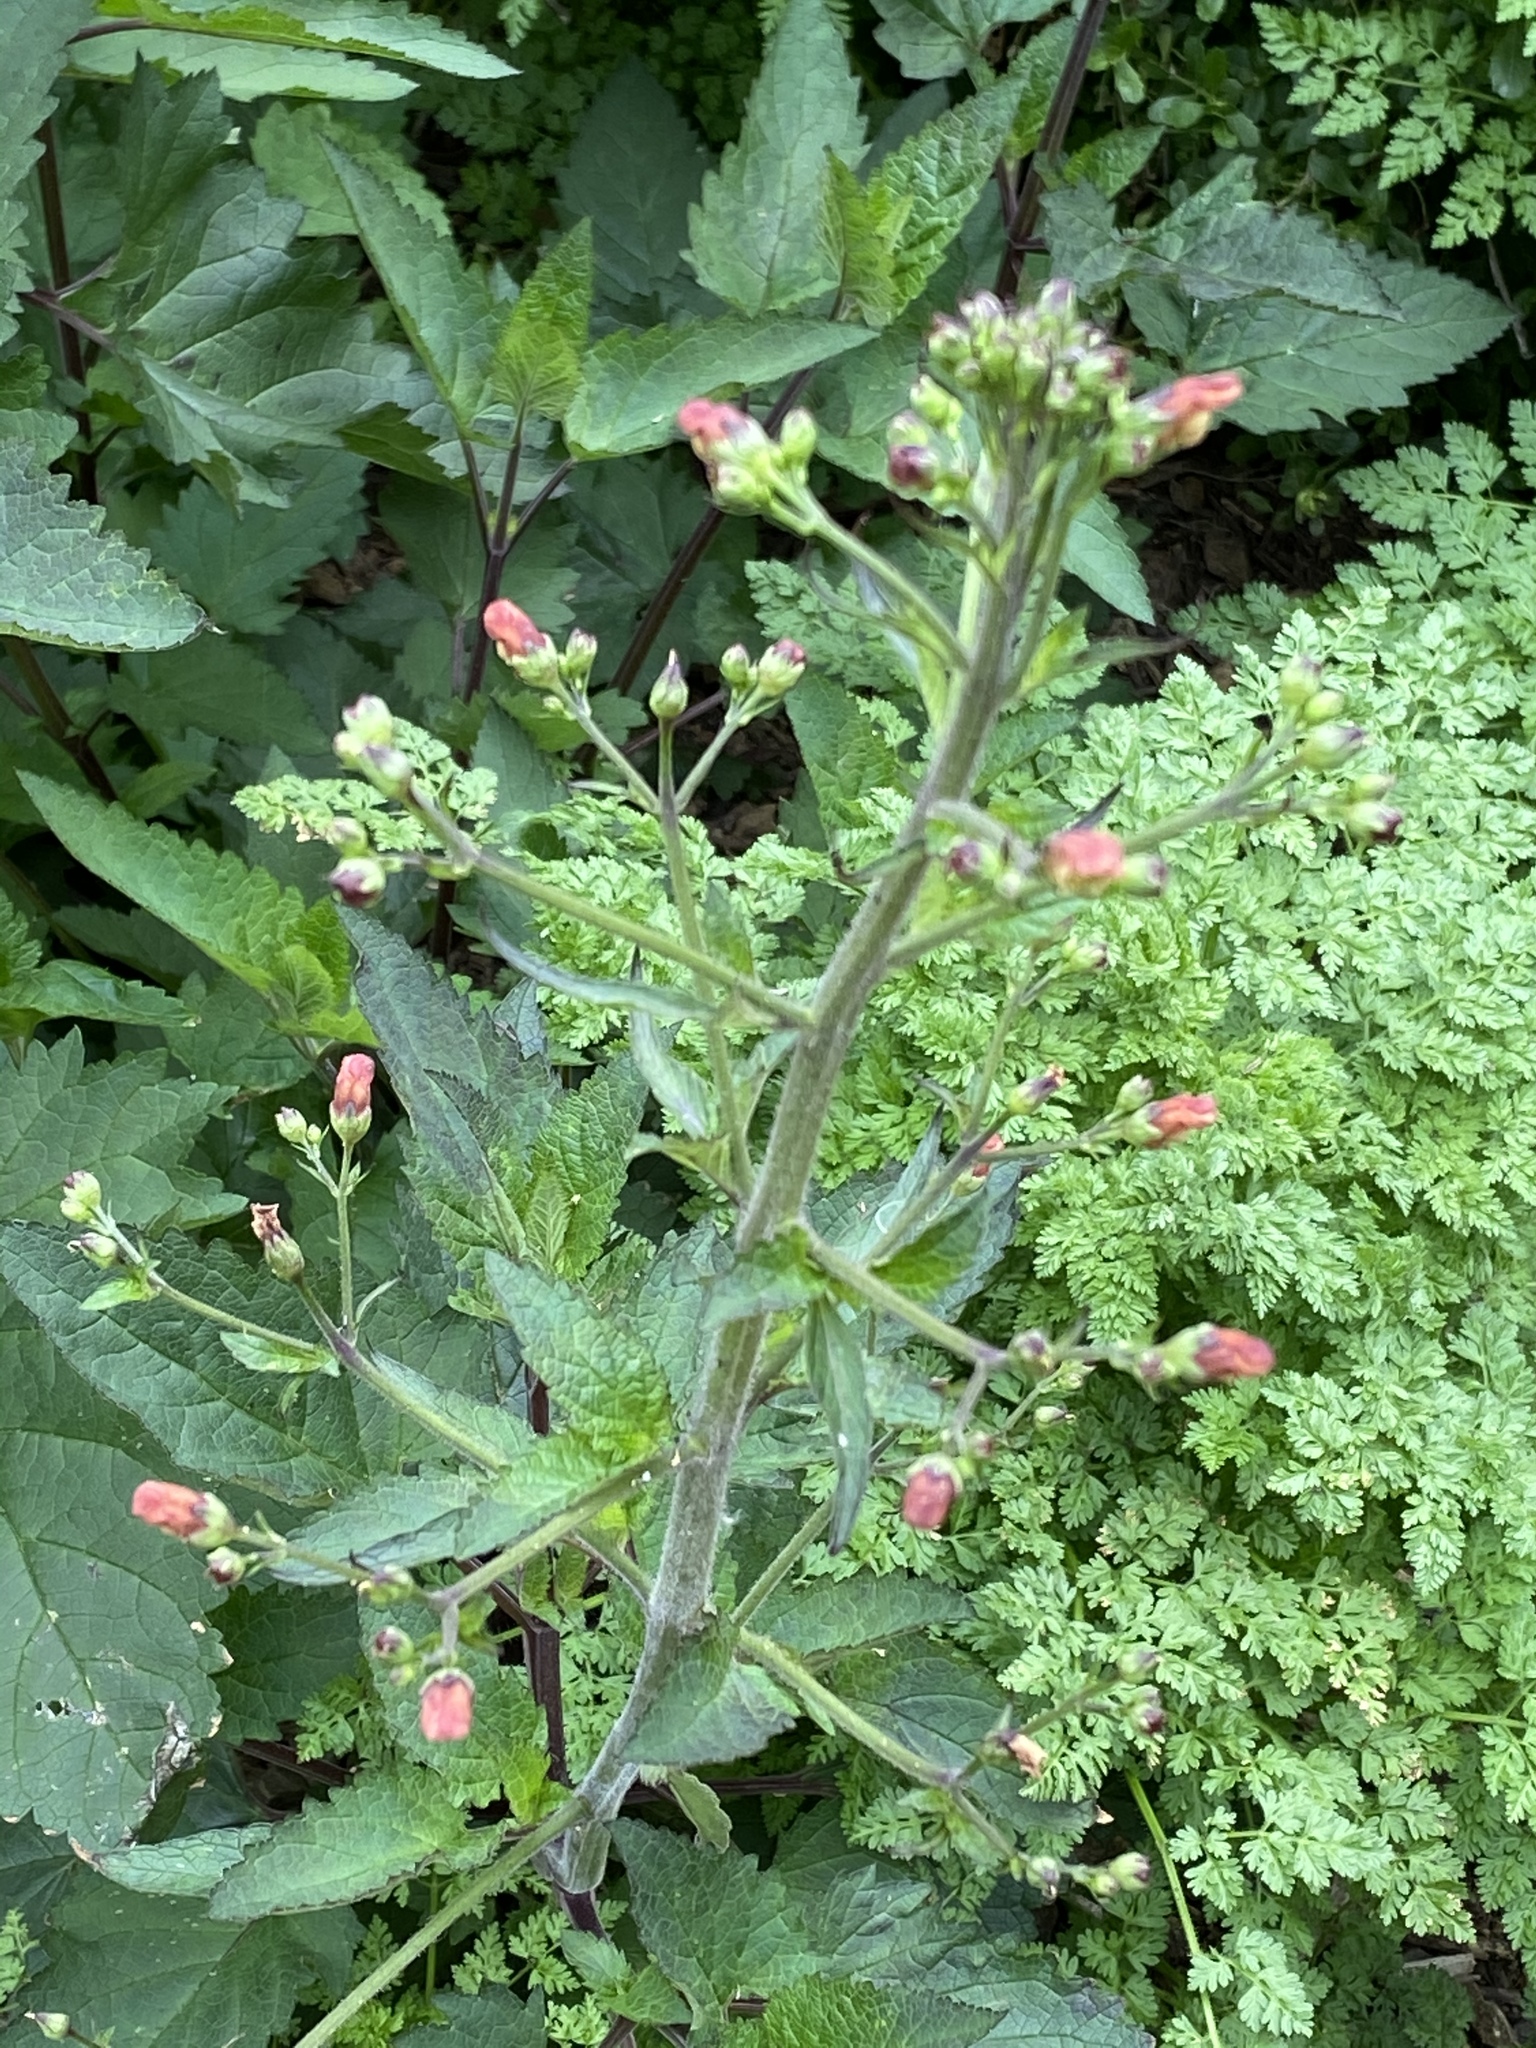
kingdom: Plantae
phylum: Tracheophyta
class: Magnoliopsida
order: Lamiales
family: Scrophulariaceae
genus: Scrophularia
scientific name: Scrophularia californica
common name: California figwort
